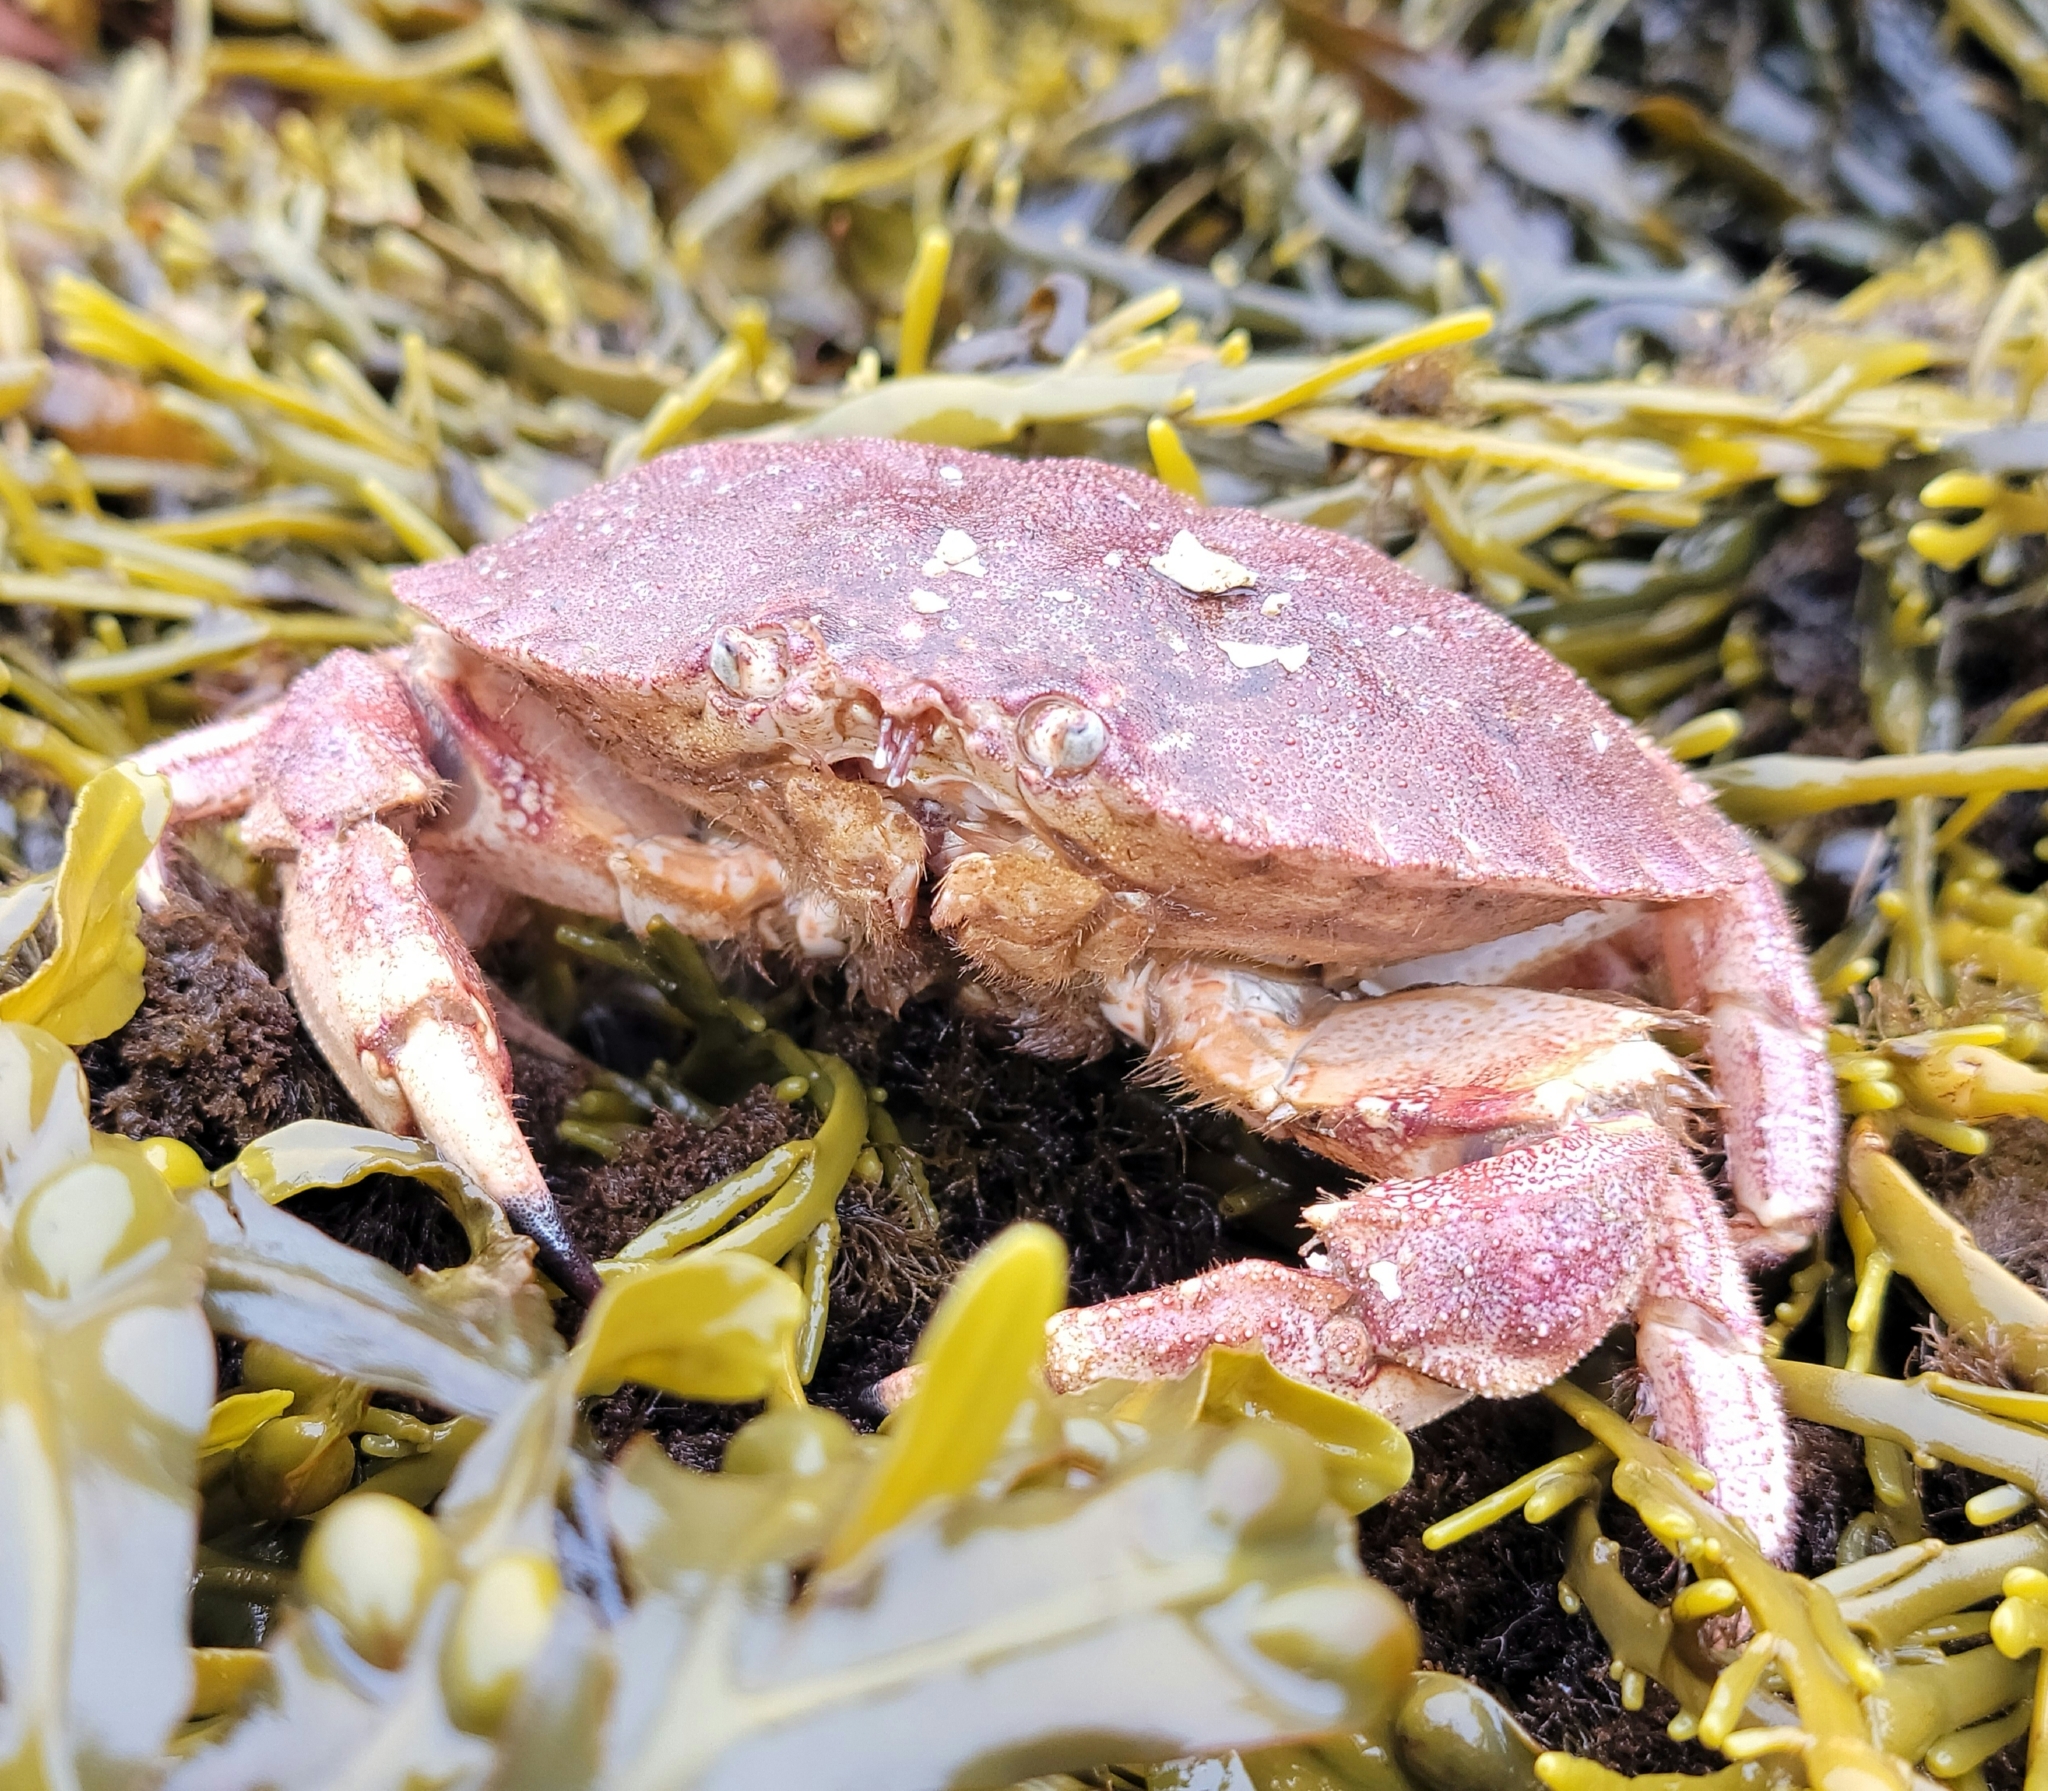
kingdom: Animalia
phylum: Arthropoda
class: Malacostraca
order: Decapoda
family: Cancridae
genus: Cancer
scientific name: Cancer borealis
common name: Jonah crab
